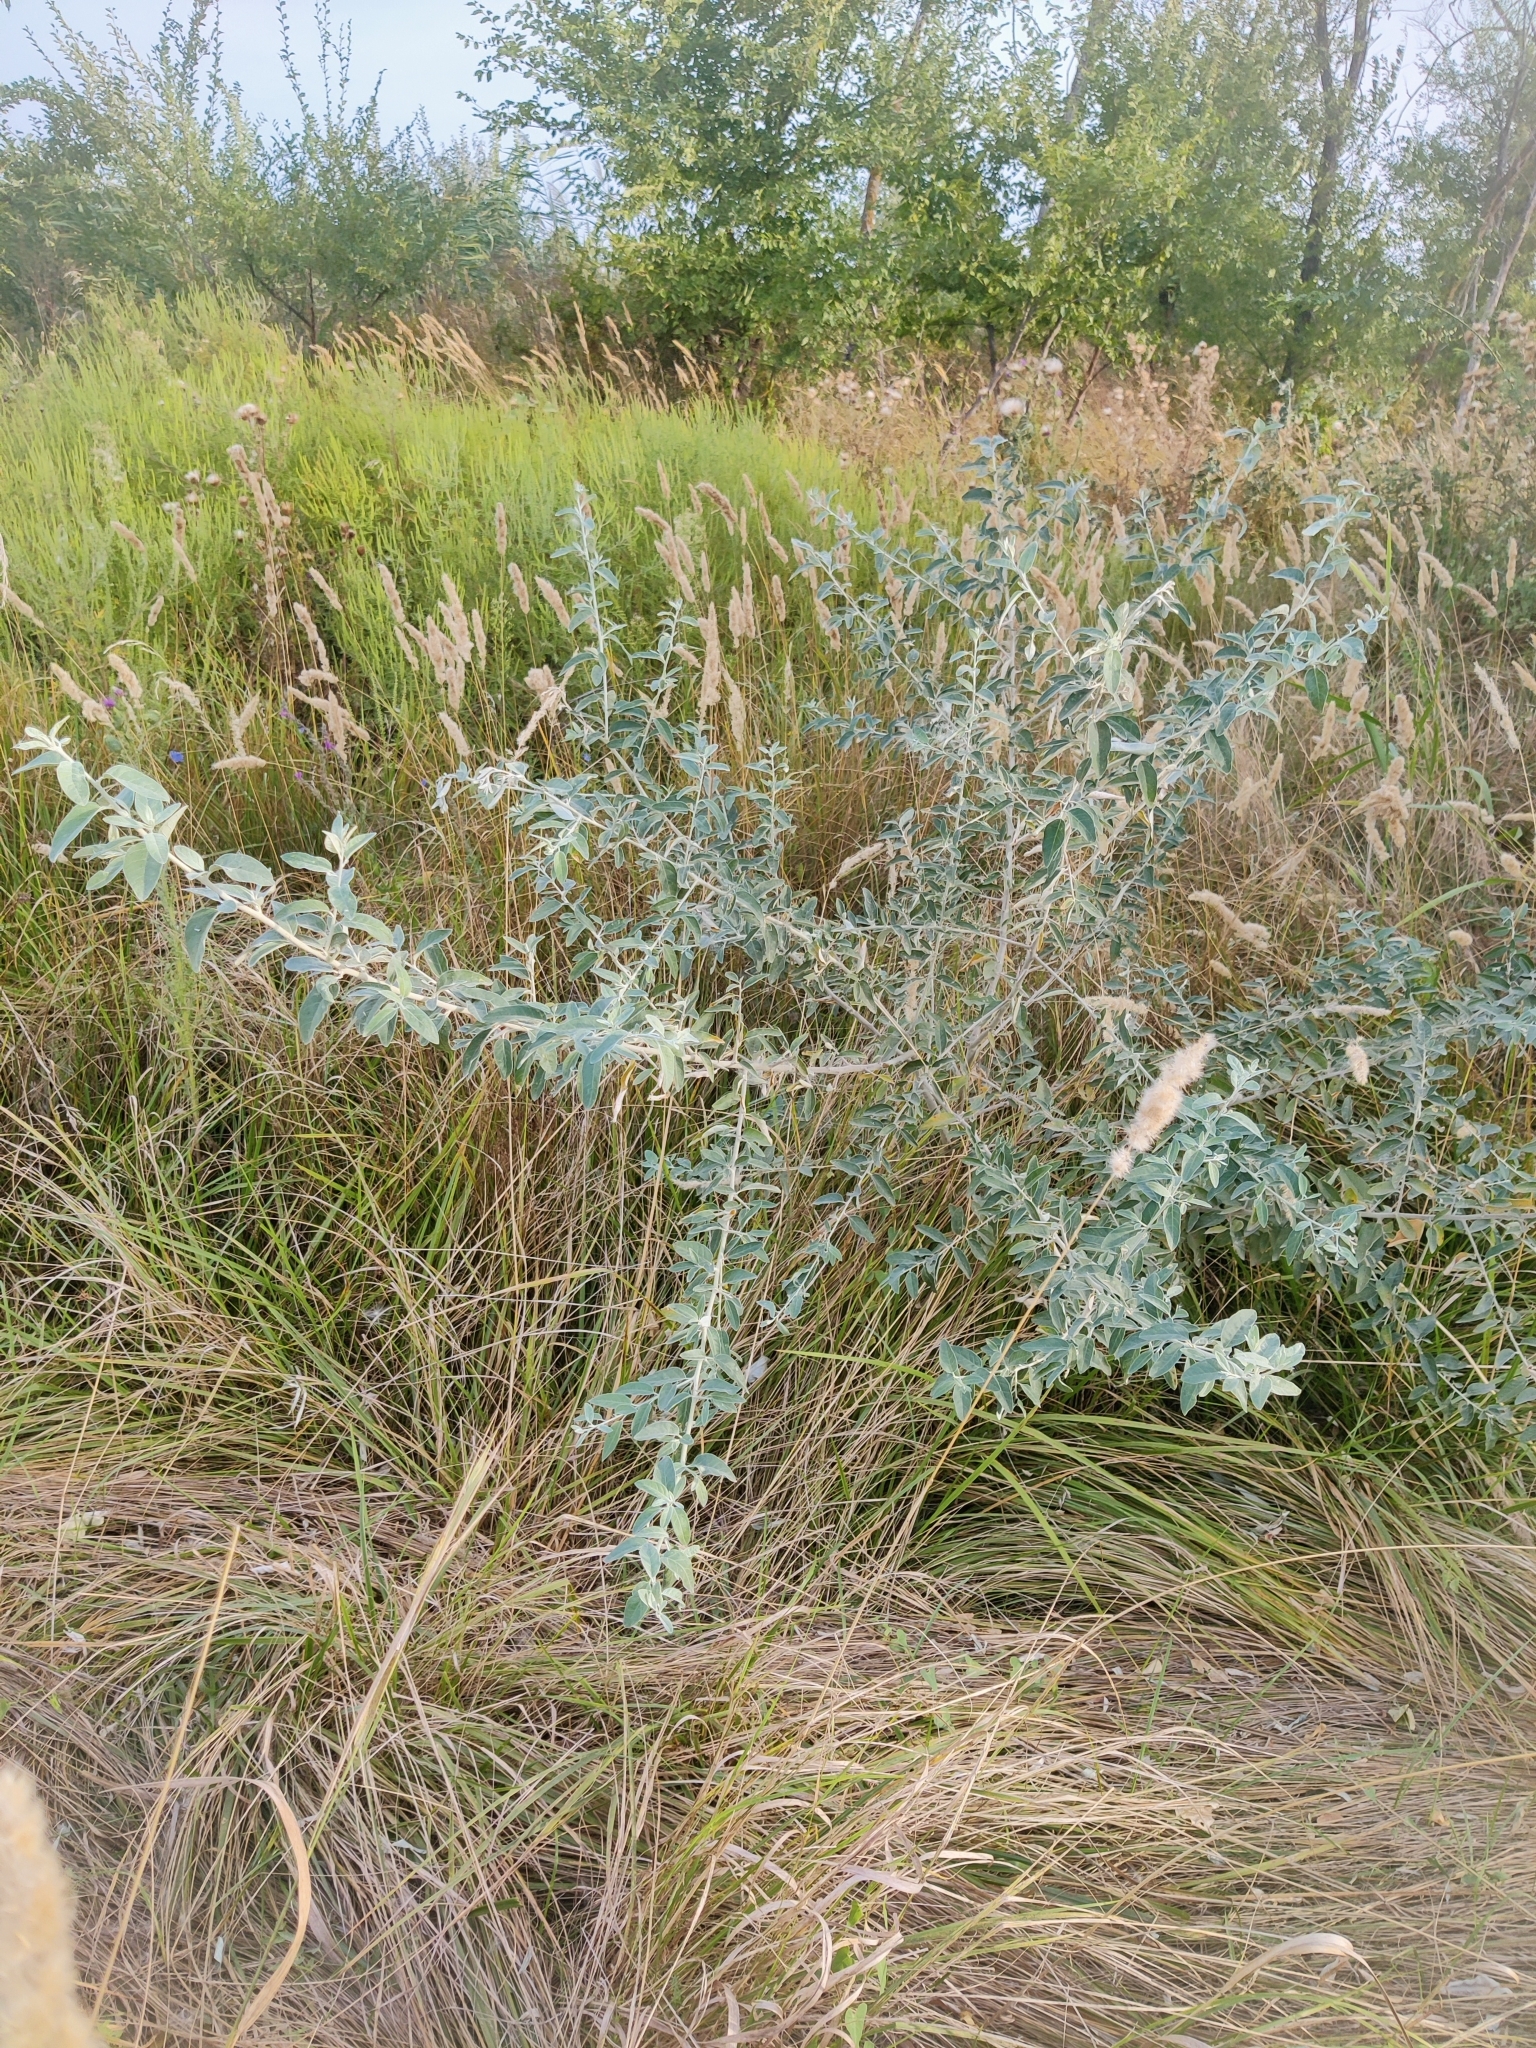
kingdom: Plantae
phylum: Tracheophyta
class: Magnoliopsida
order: Rosales
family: Elaeagnaceae
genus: Elaeagnus
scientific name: Elaeagnus angustifolia
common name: Russian olive
